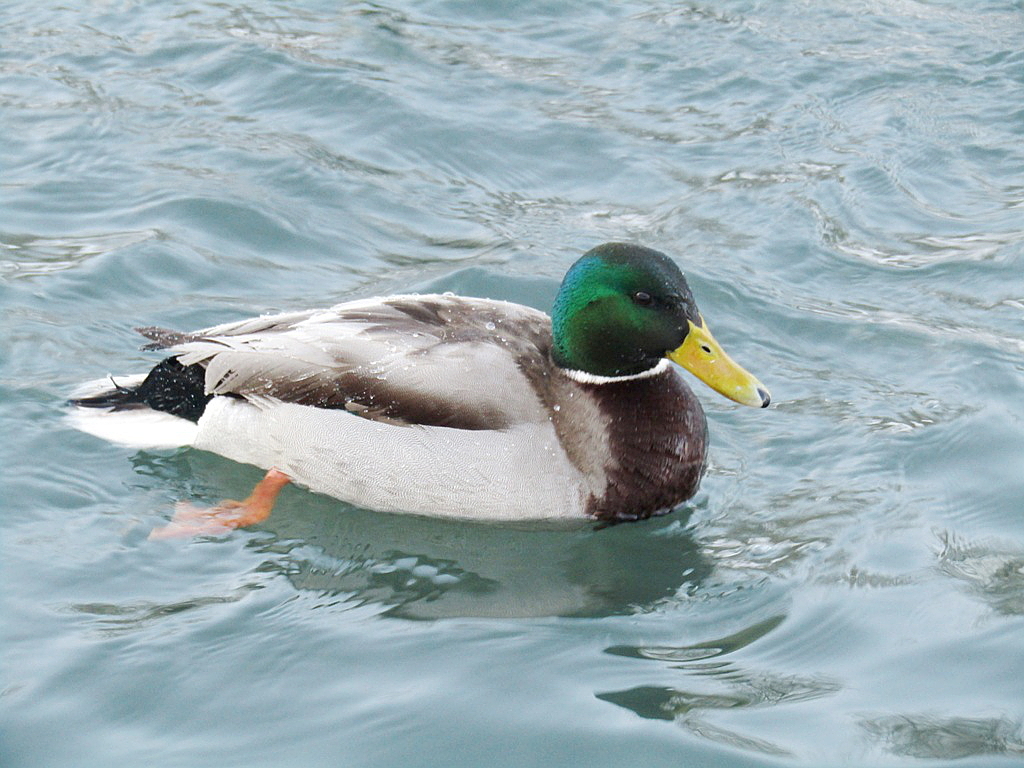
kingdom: Animalia
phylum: Chordata
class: Aves
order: Anseriformes
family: Anatidae
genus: Anas
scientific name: Anas platyrhynchos
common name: Mallard
